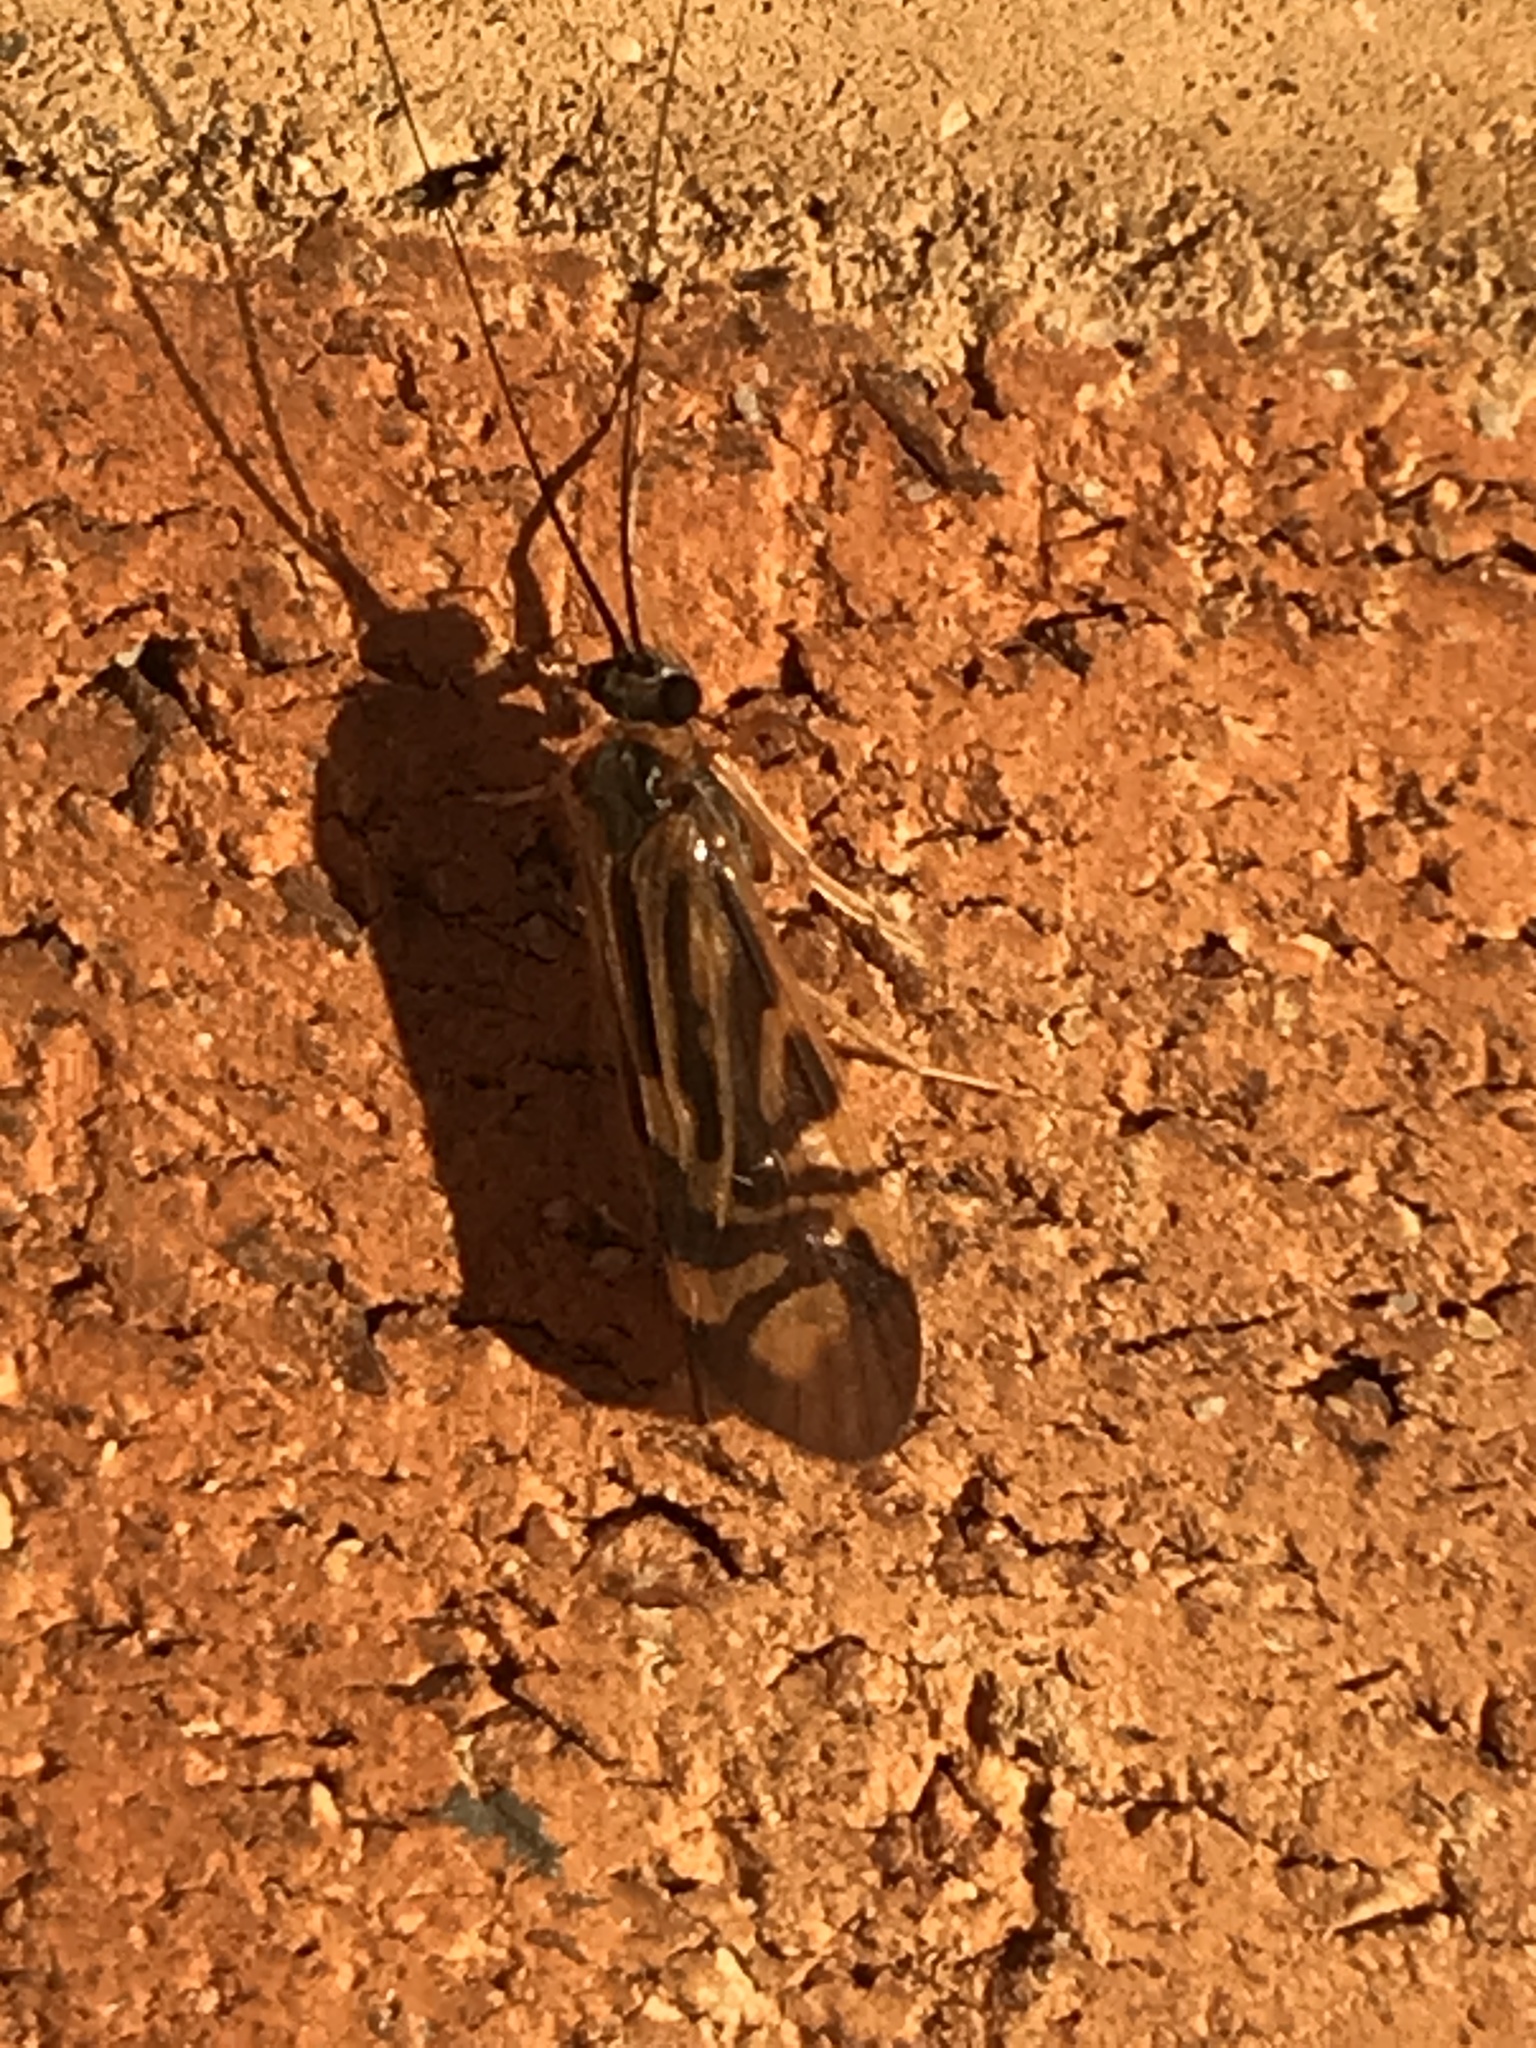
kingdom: Animalia
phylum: Arthropoda
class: Insecta
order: Trichoptera
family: Hydropsychidae
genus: Macrostemum
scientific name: Macrostemum zebratum
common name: Zebra caddisfly
